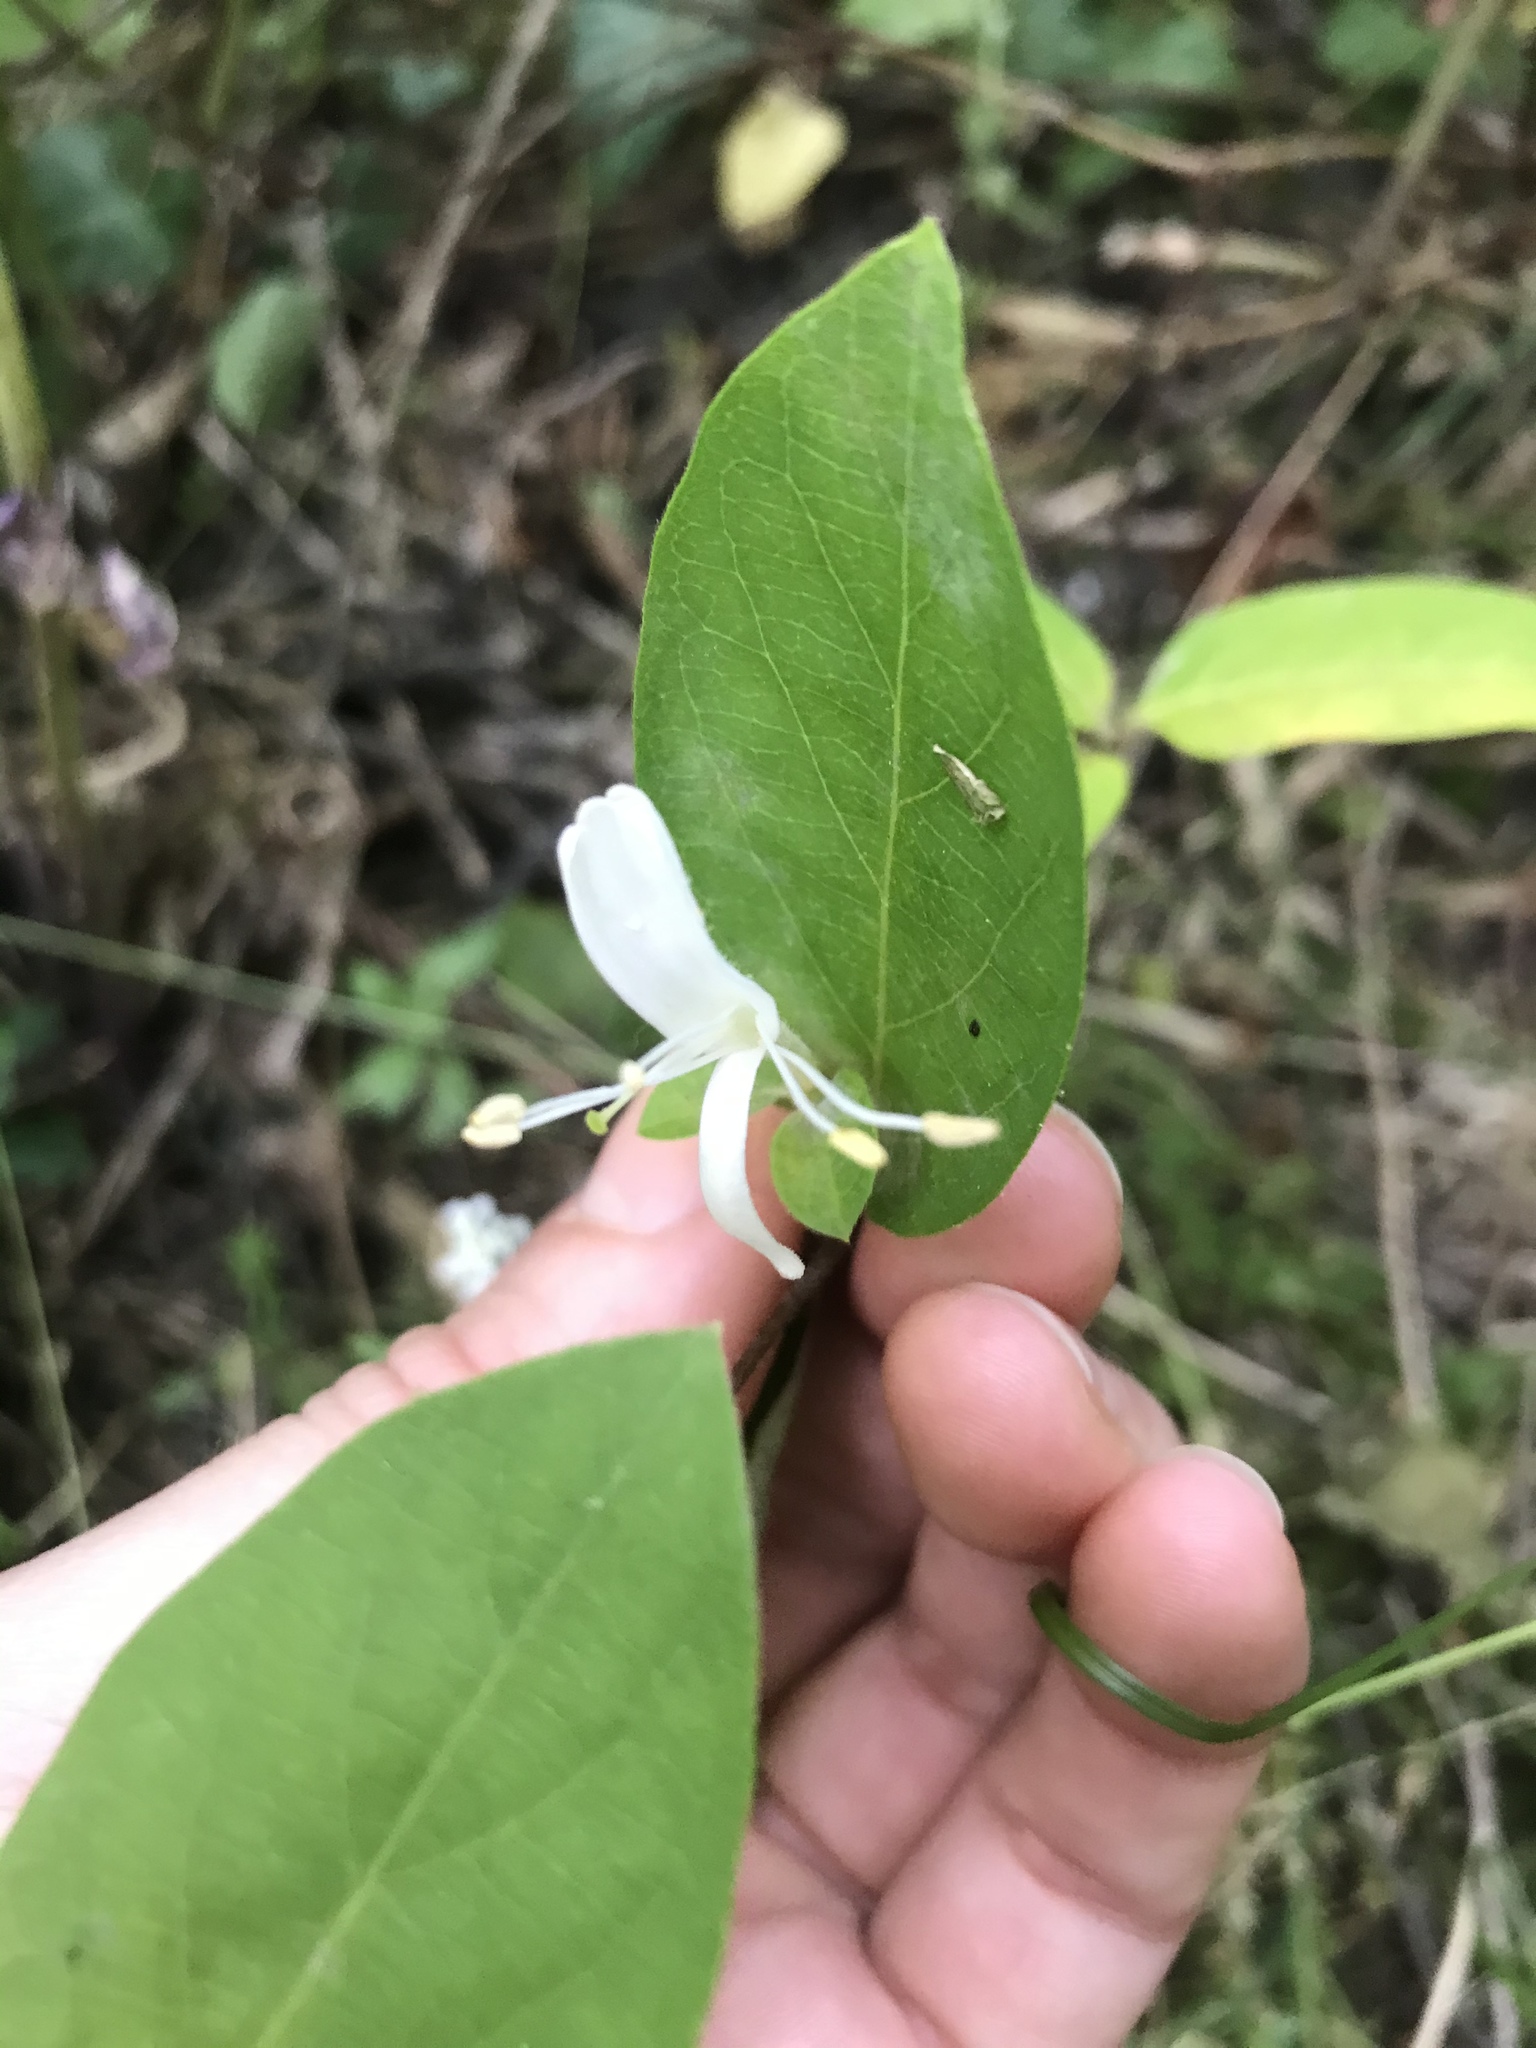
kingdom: Plantae
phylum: Tracheophyta
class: Magnoliopsida
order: Dipsacales
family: Caprifoliaceae
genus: Lonicera
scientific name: Lonicera japonica
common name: Japanese honeysuckle
